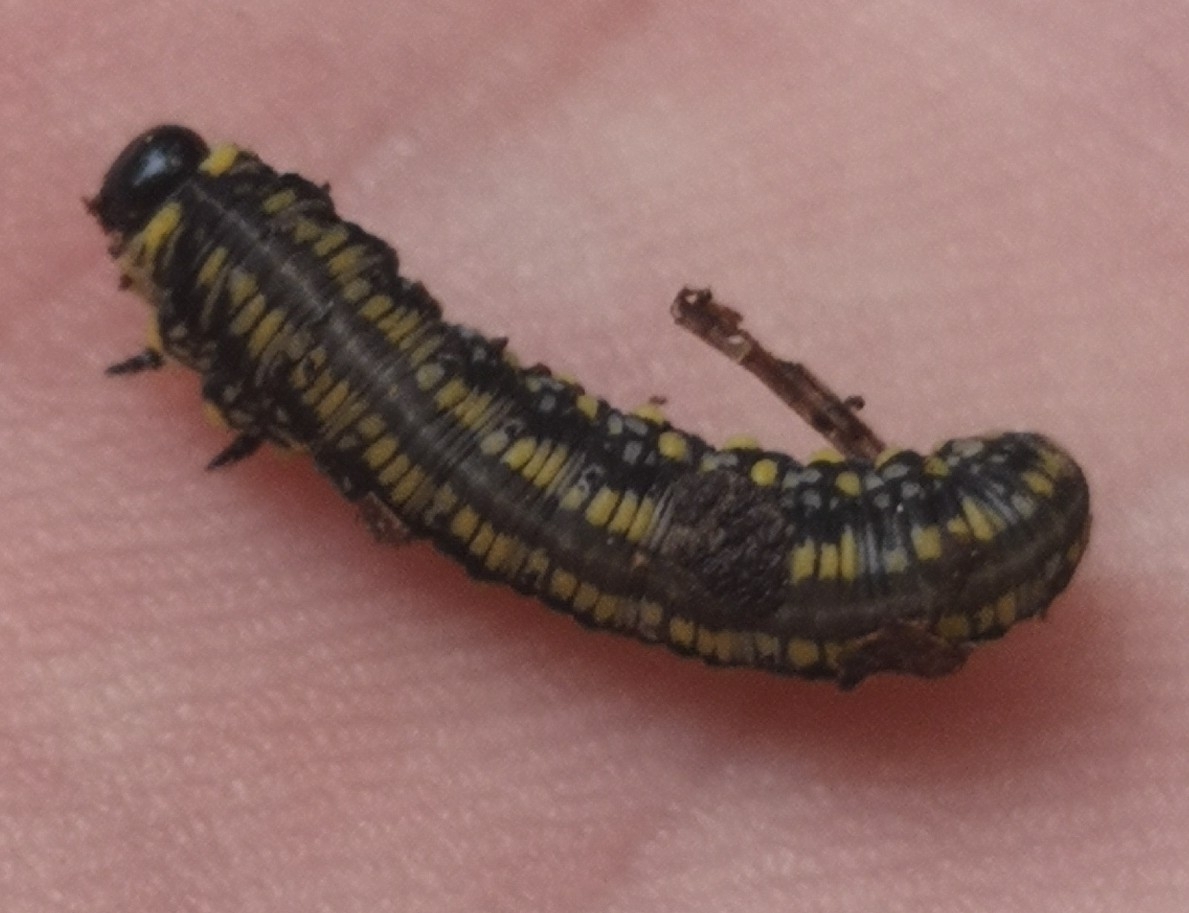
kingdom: Animalia
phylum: Arthropoda
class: Insecta
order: Hymenoptera
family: Diprionidae
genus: Diprion
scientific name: Diprion similis
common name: Pine sawfly
